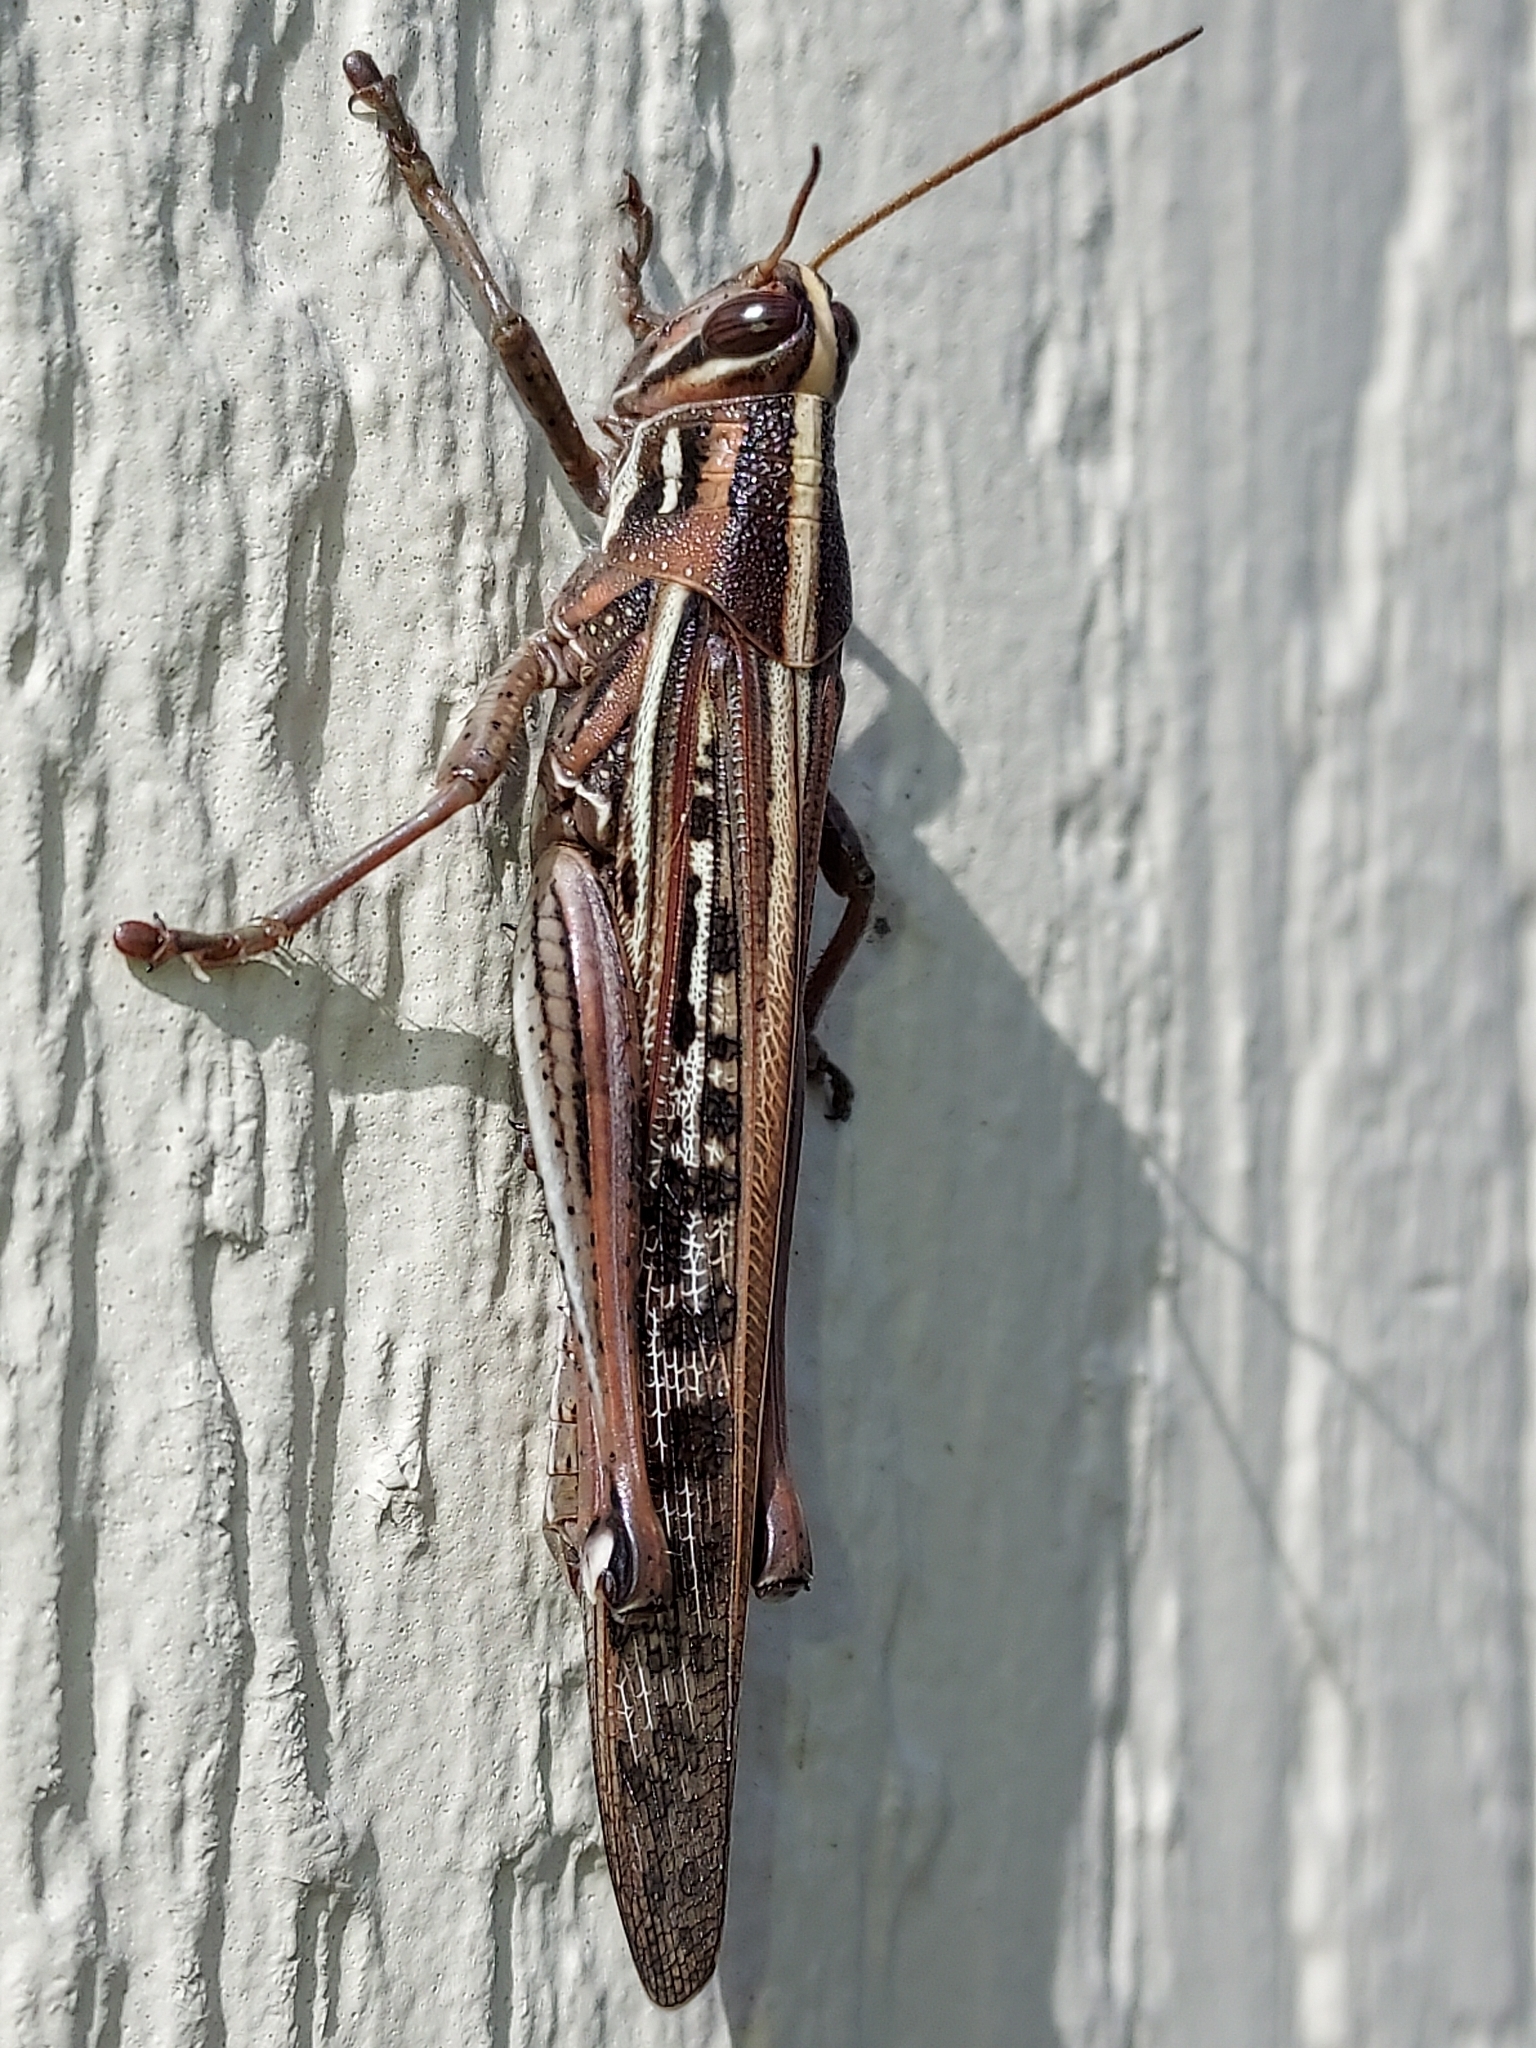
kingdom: Animalia
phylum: Arthropoda
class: Insecta
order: Orthoptera
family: Acrididae
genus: Schistocerca
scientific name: Schistocerca americana
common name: American bird locust
